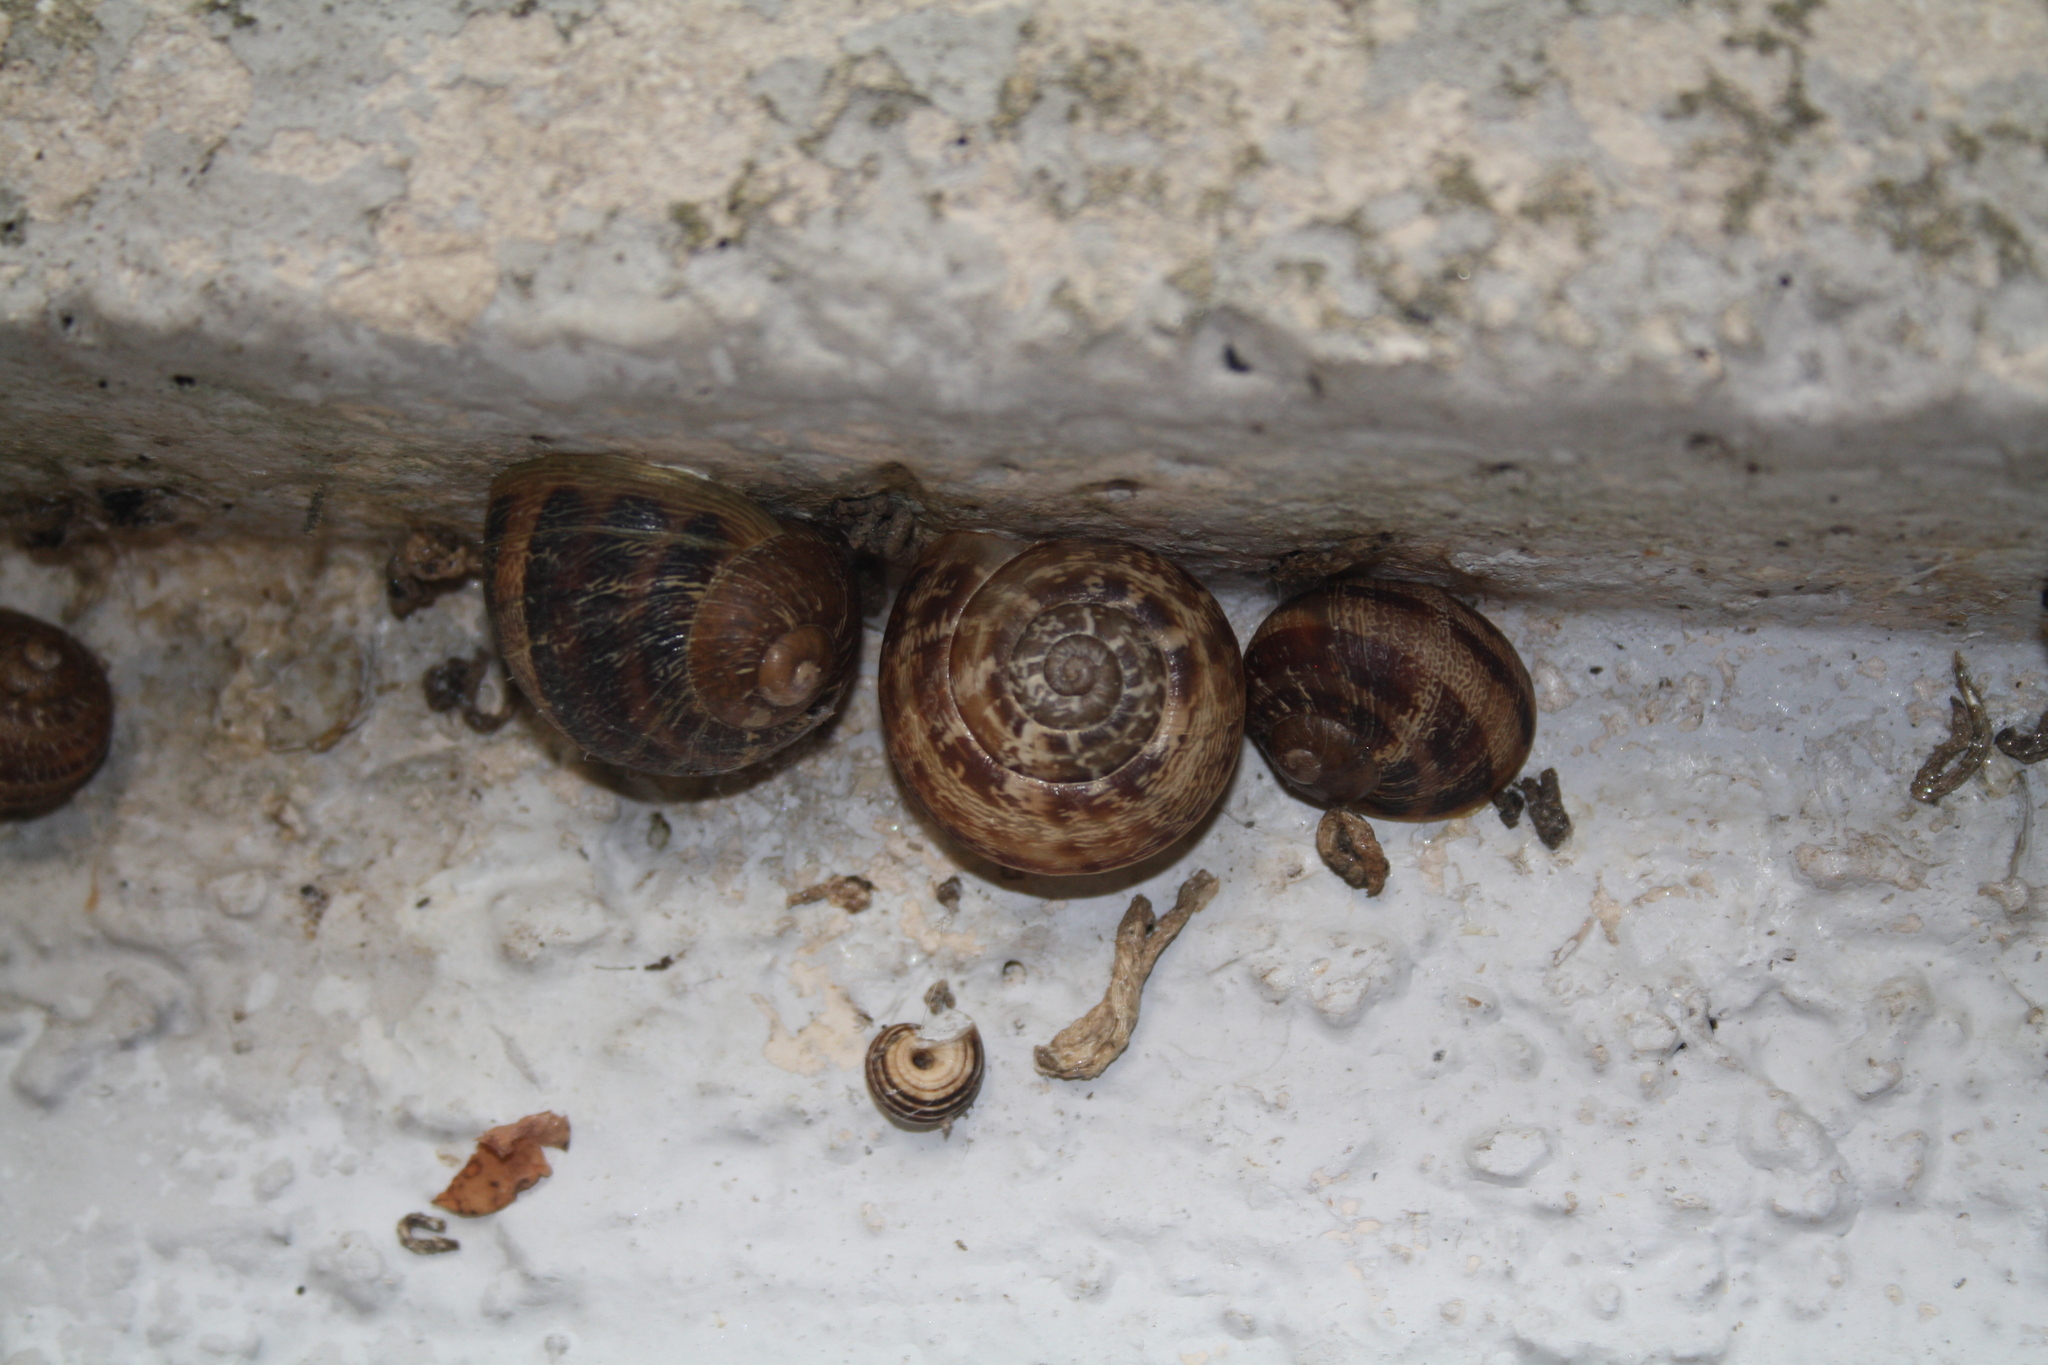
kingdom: Animalia
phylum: Mollusca
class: Gastropoda
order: Stylommatophora
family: Helicidae
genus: Eobania
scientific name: Eobania vermiculata
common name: Chocolateband snail
